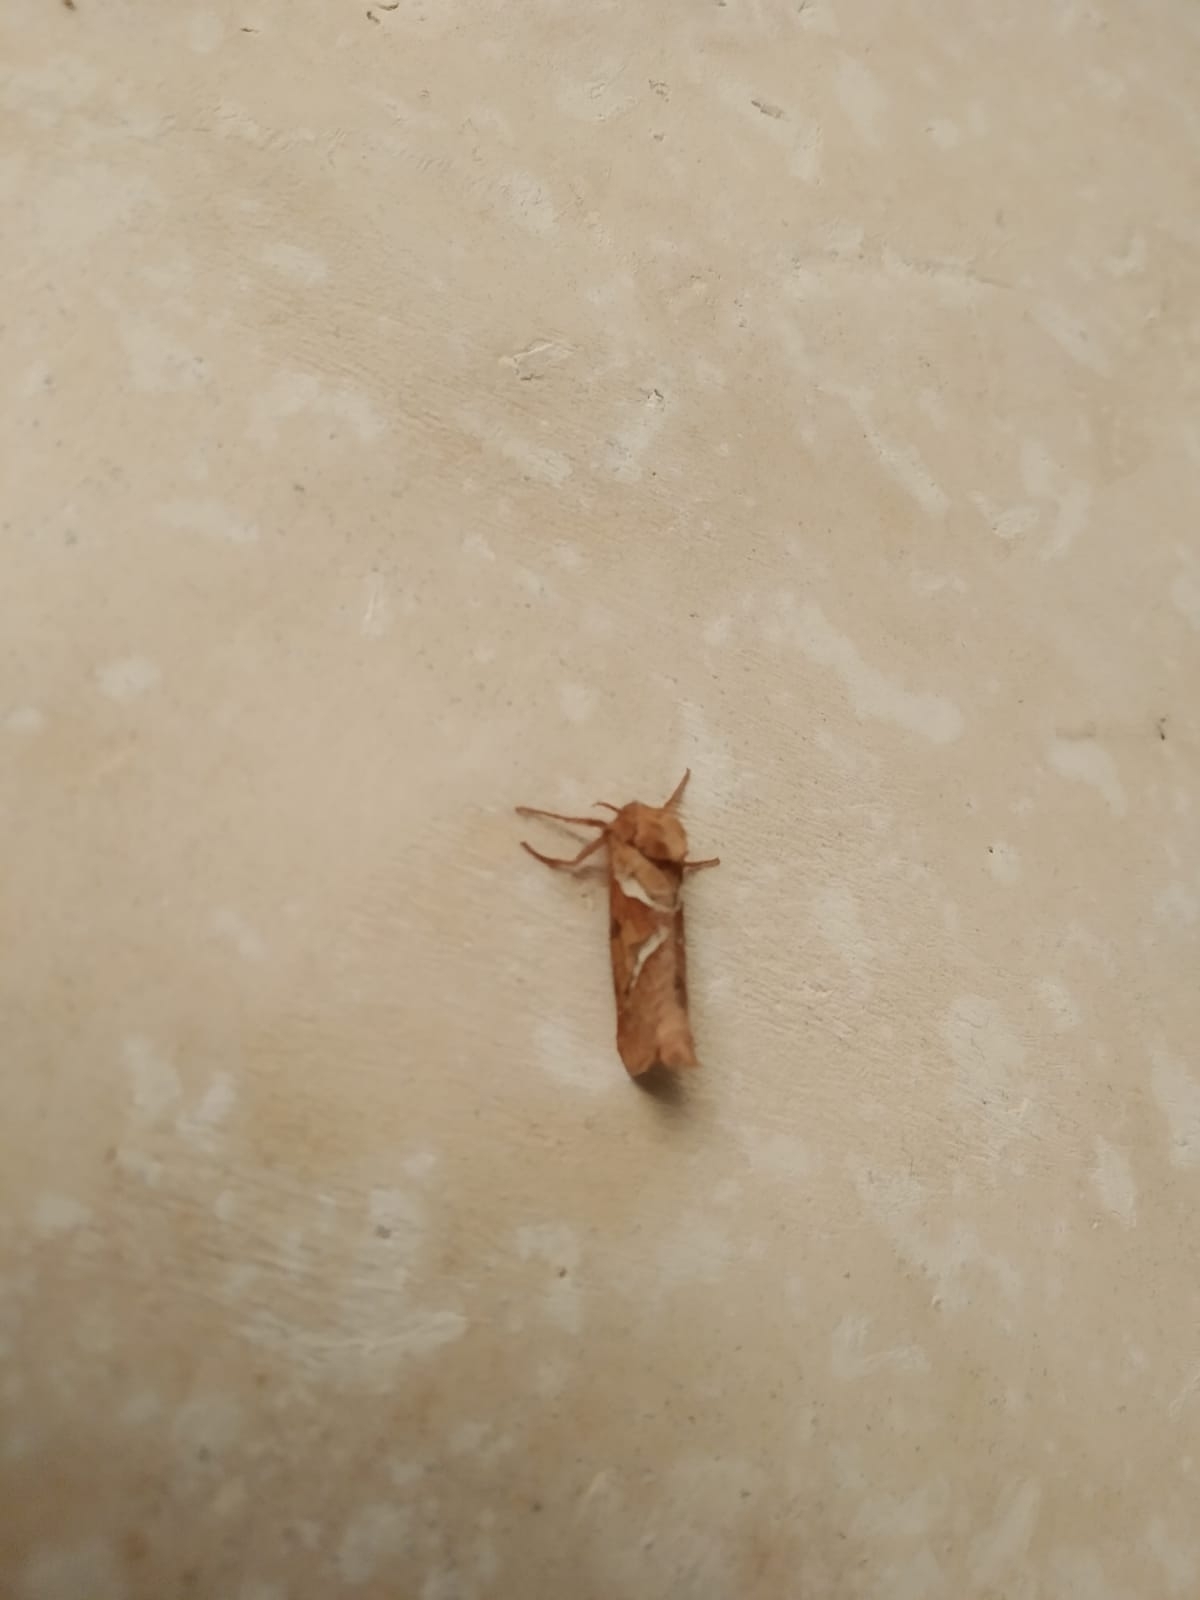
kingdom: Animalia
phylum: Arthropoda
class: Insecta
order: Lepidoptera
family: Hepialidae
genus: Triodia
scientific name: Triodia sylvina
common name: Orange swift
